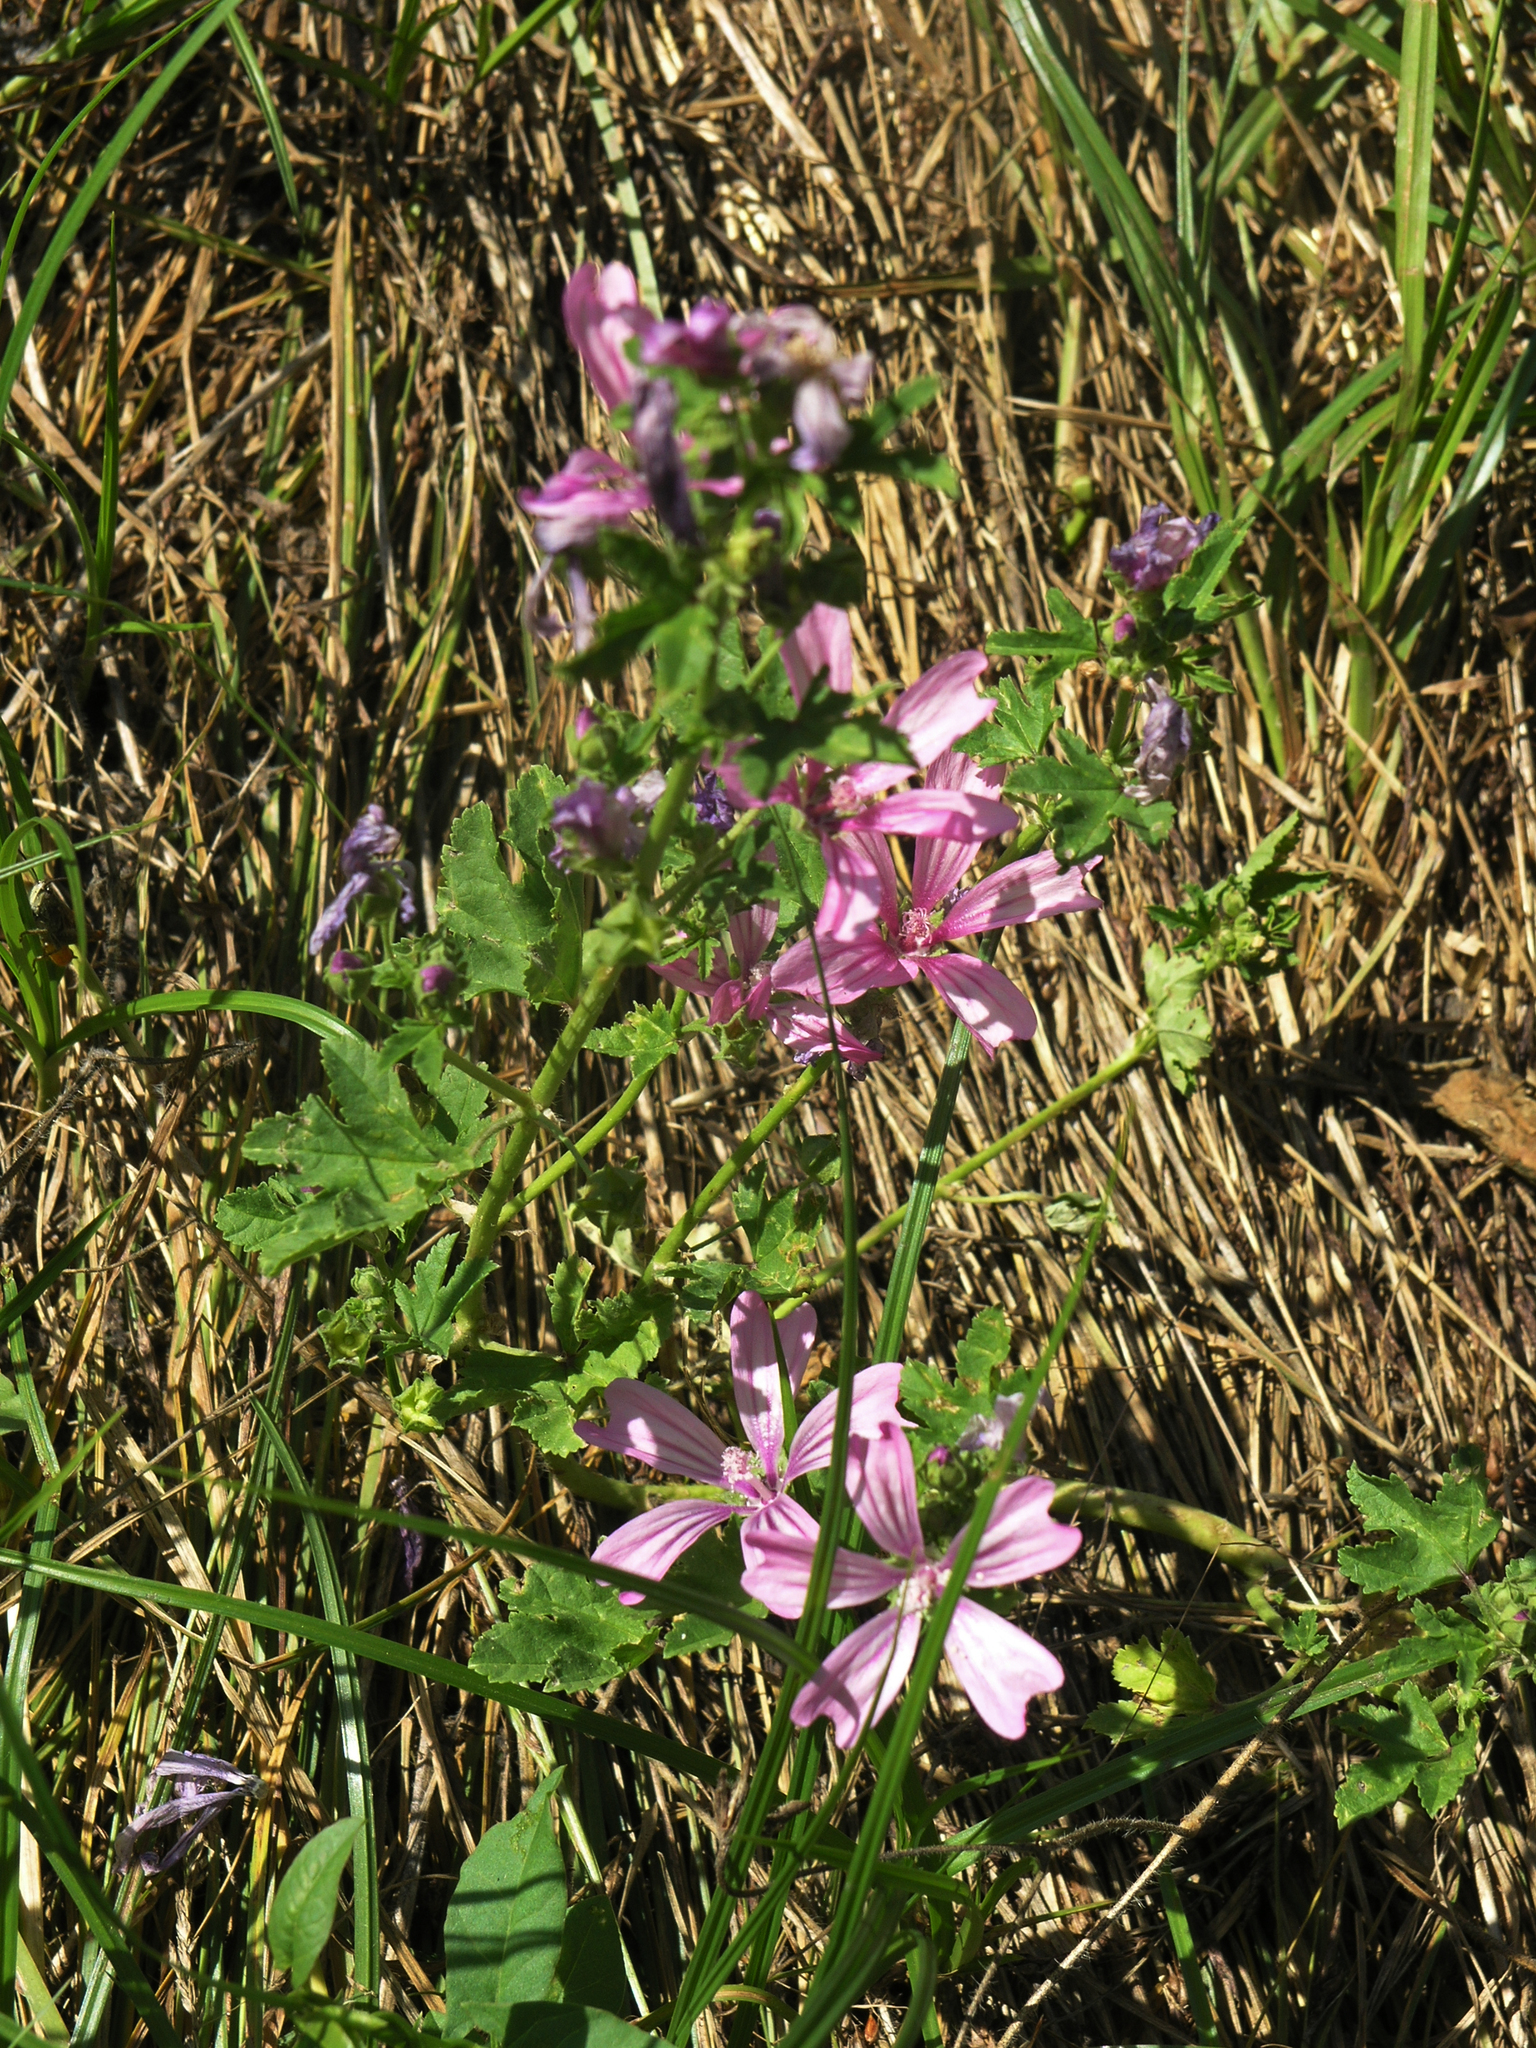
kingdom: Plantae
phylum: Tracheophyta
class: Magnoliopsida
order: Malvales
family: Malvaceae
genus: Malva
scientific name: Malva sylvestris
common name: Common mallow
